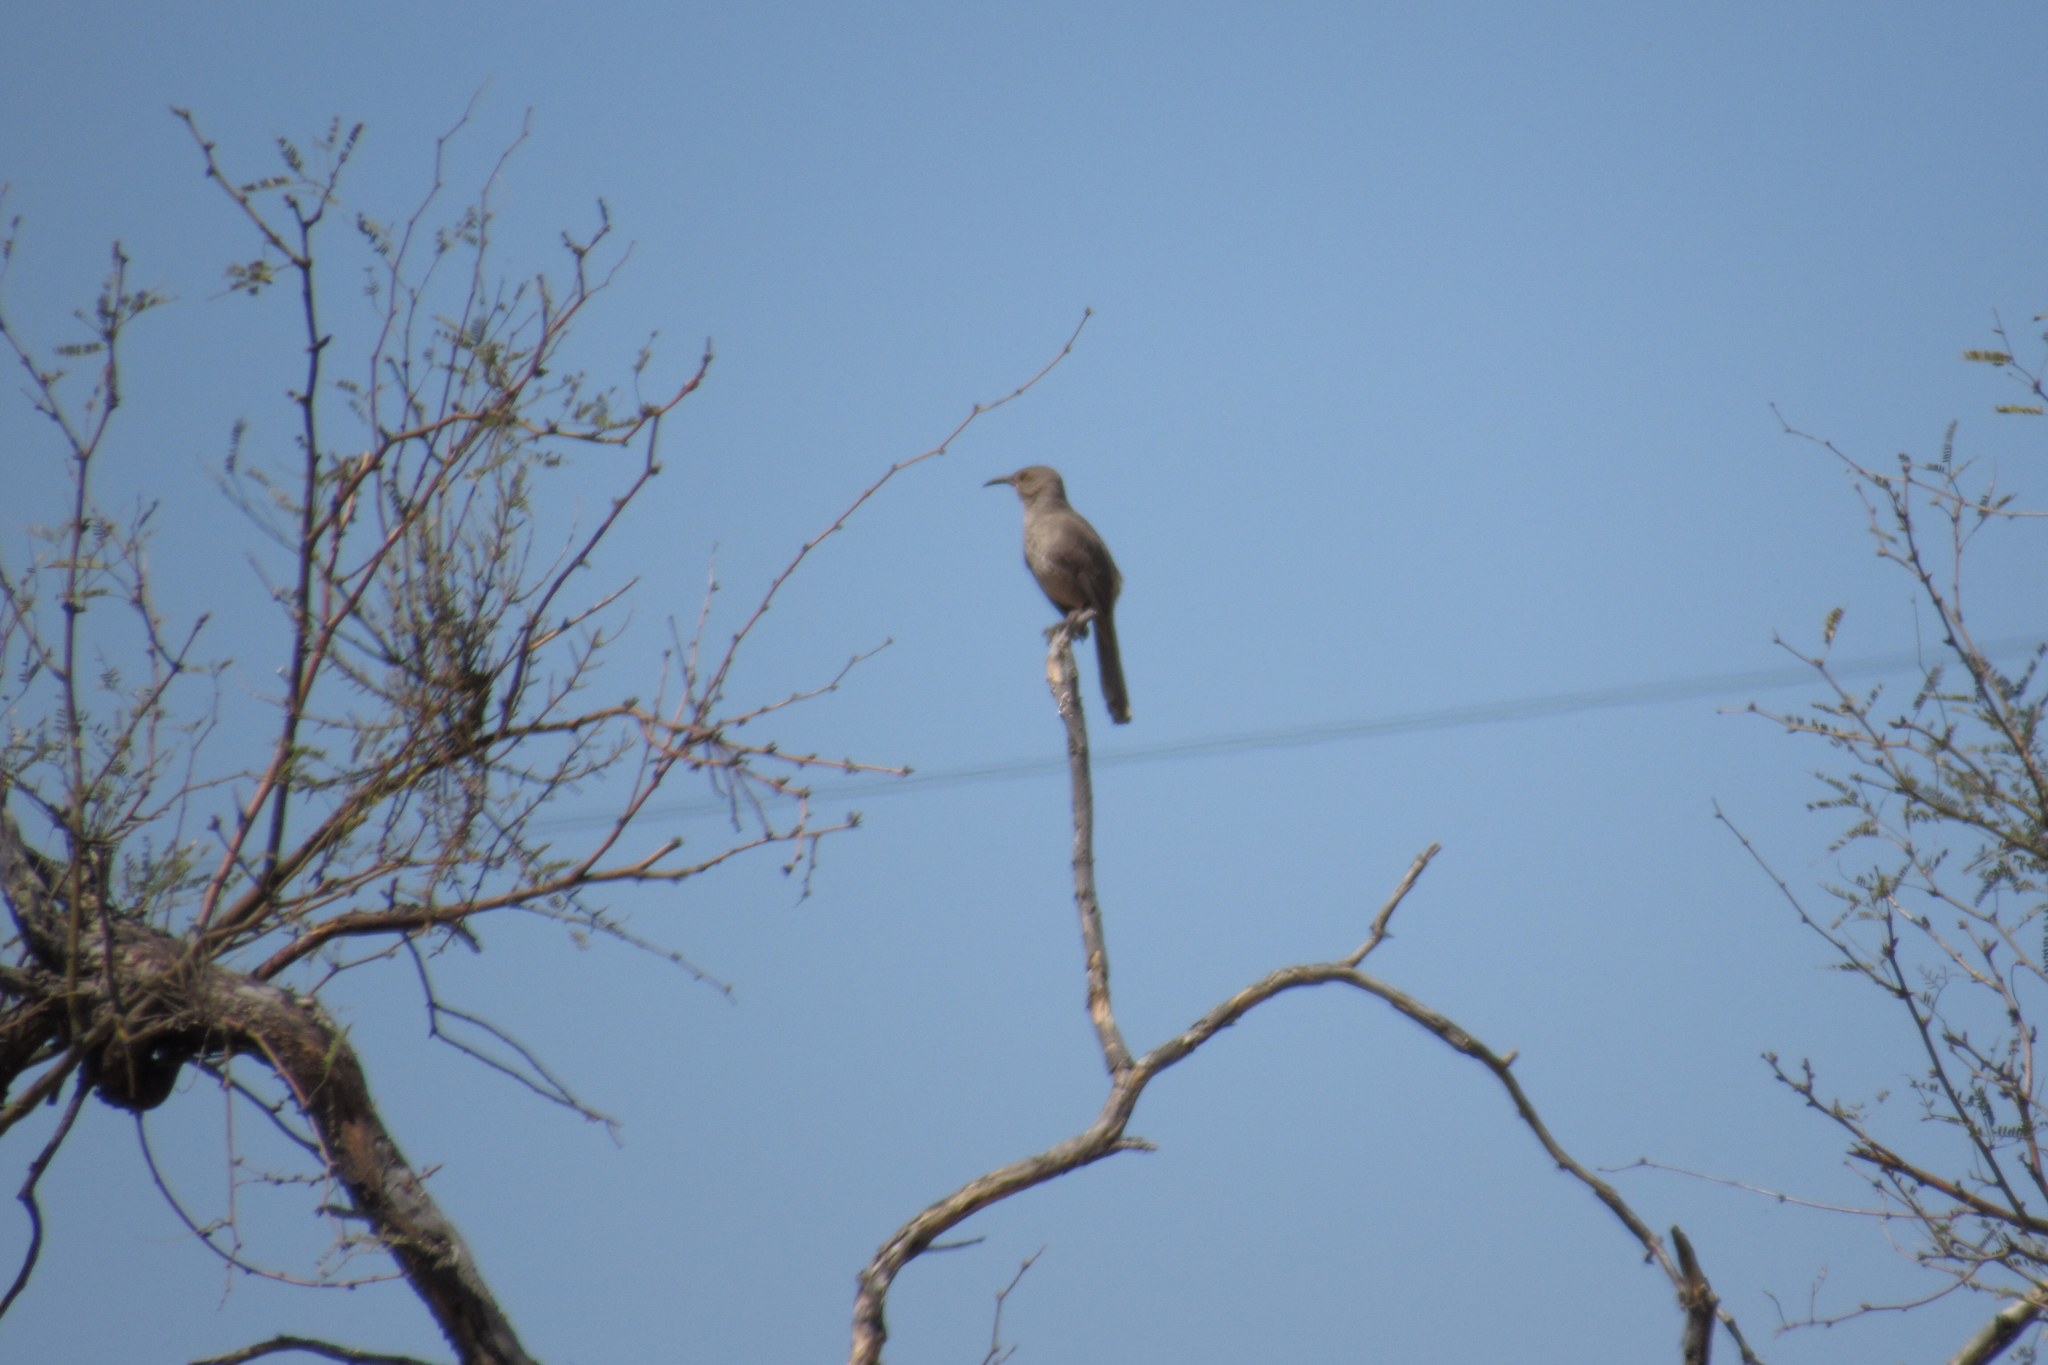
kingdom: Animalia
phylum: Chordata
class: Aves
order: Passeriformes
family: Mimidae
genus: Toxostoma
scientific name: Toxostoma curvirostre
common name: Curve-billed thrasher
